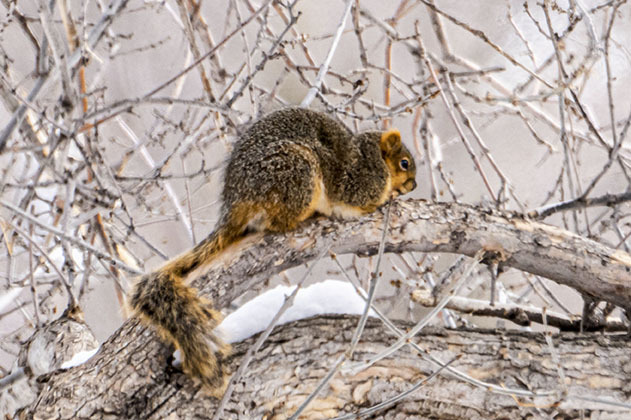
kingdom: Animalia
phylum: Chordata
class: Mammalia
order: Rodentia
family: Sciuridae
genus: Sciurus
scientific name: Sciurus niger
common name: Fox squirrel
